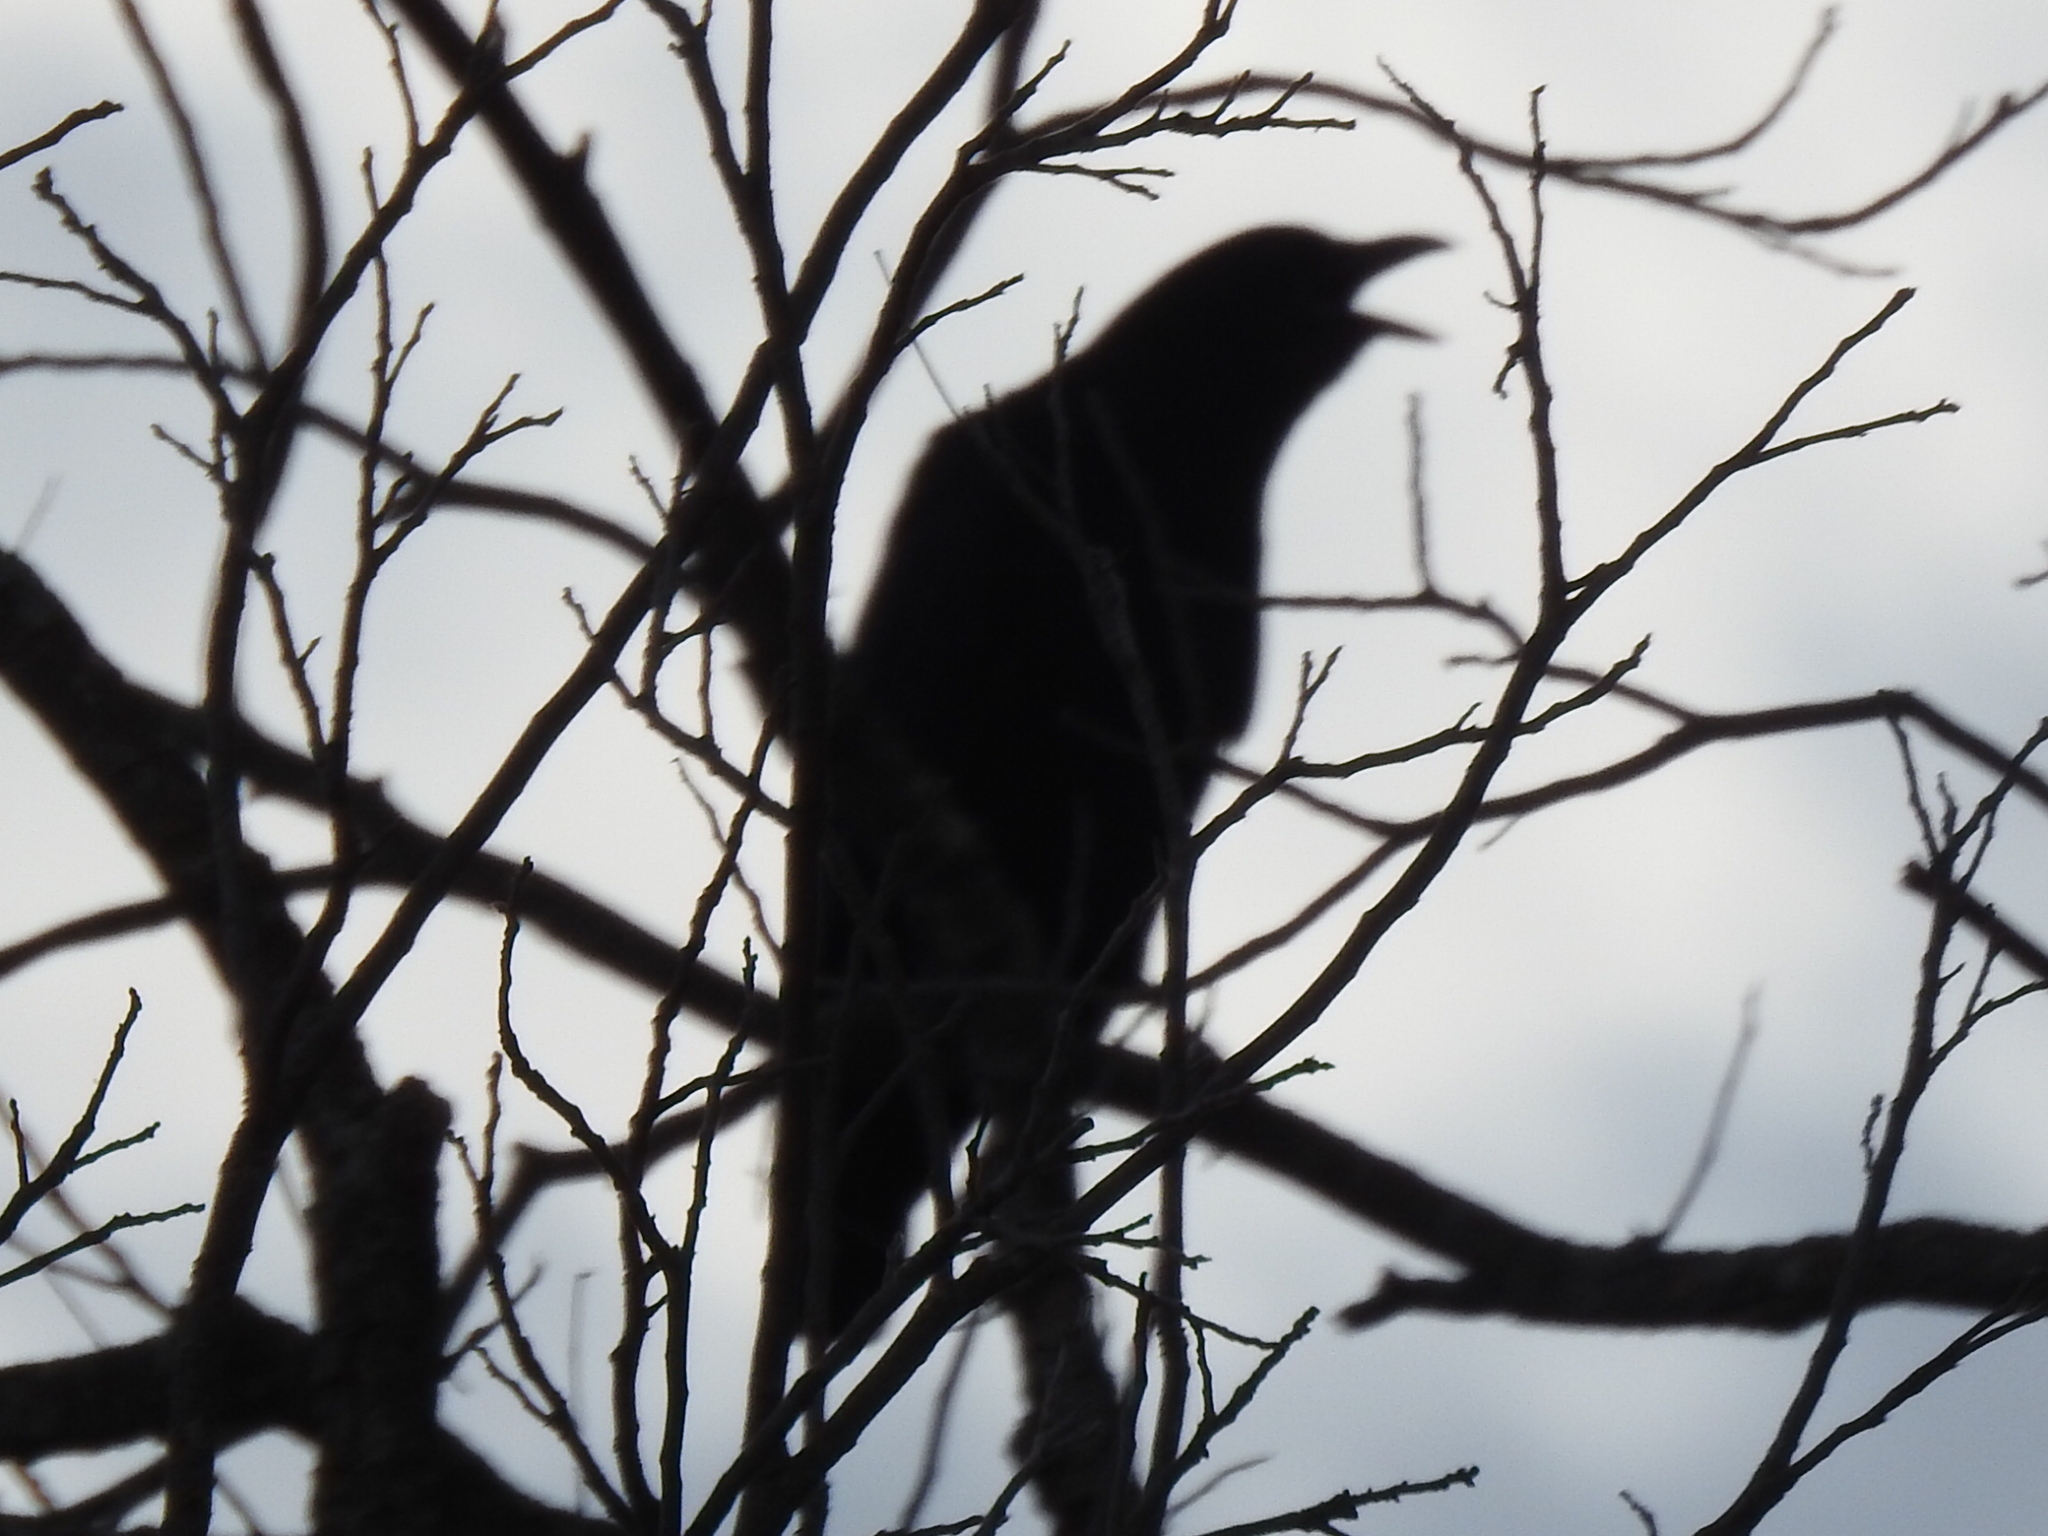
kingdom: Animalia
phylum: Chordata
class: Aves
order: Passeriformes
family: Corvidae
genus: Corvus
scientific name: Corvus brachyrhynchos
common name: American crow
